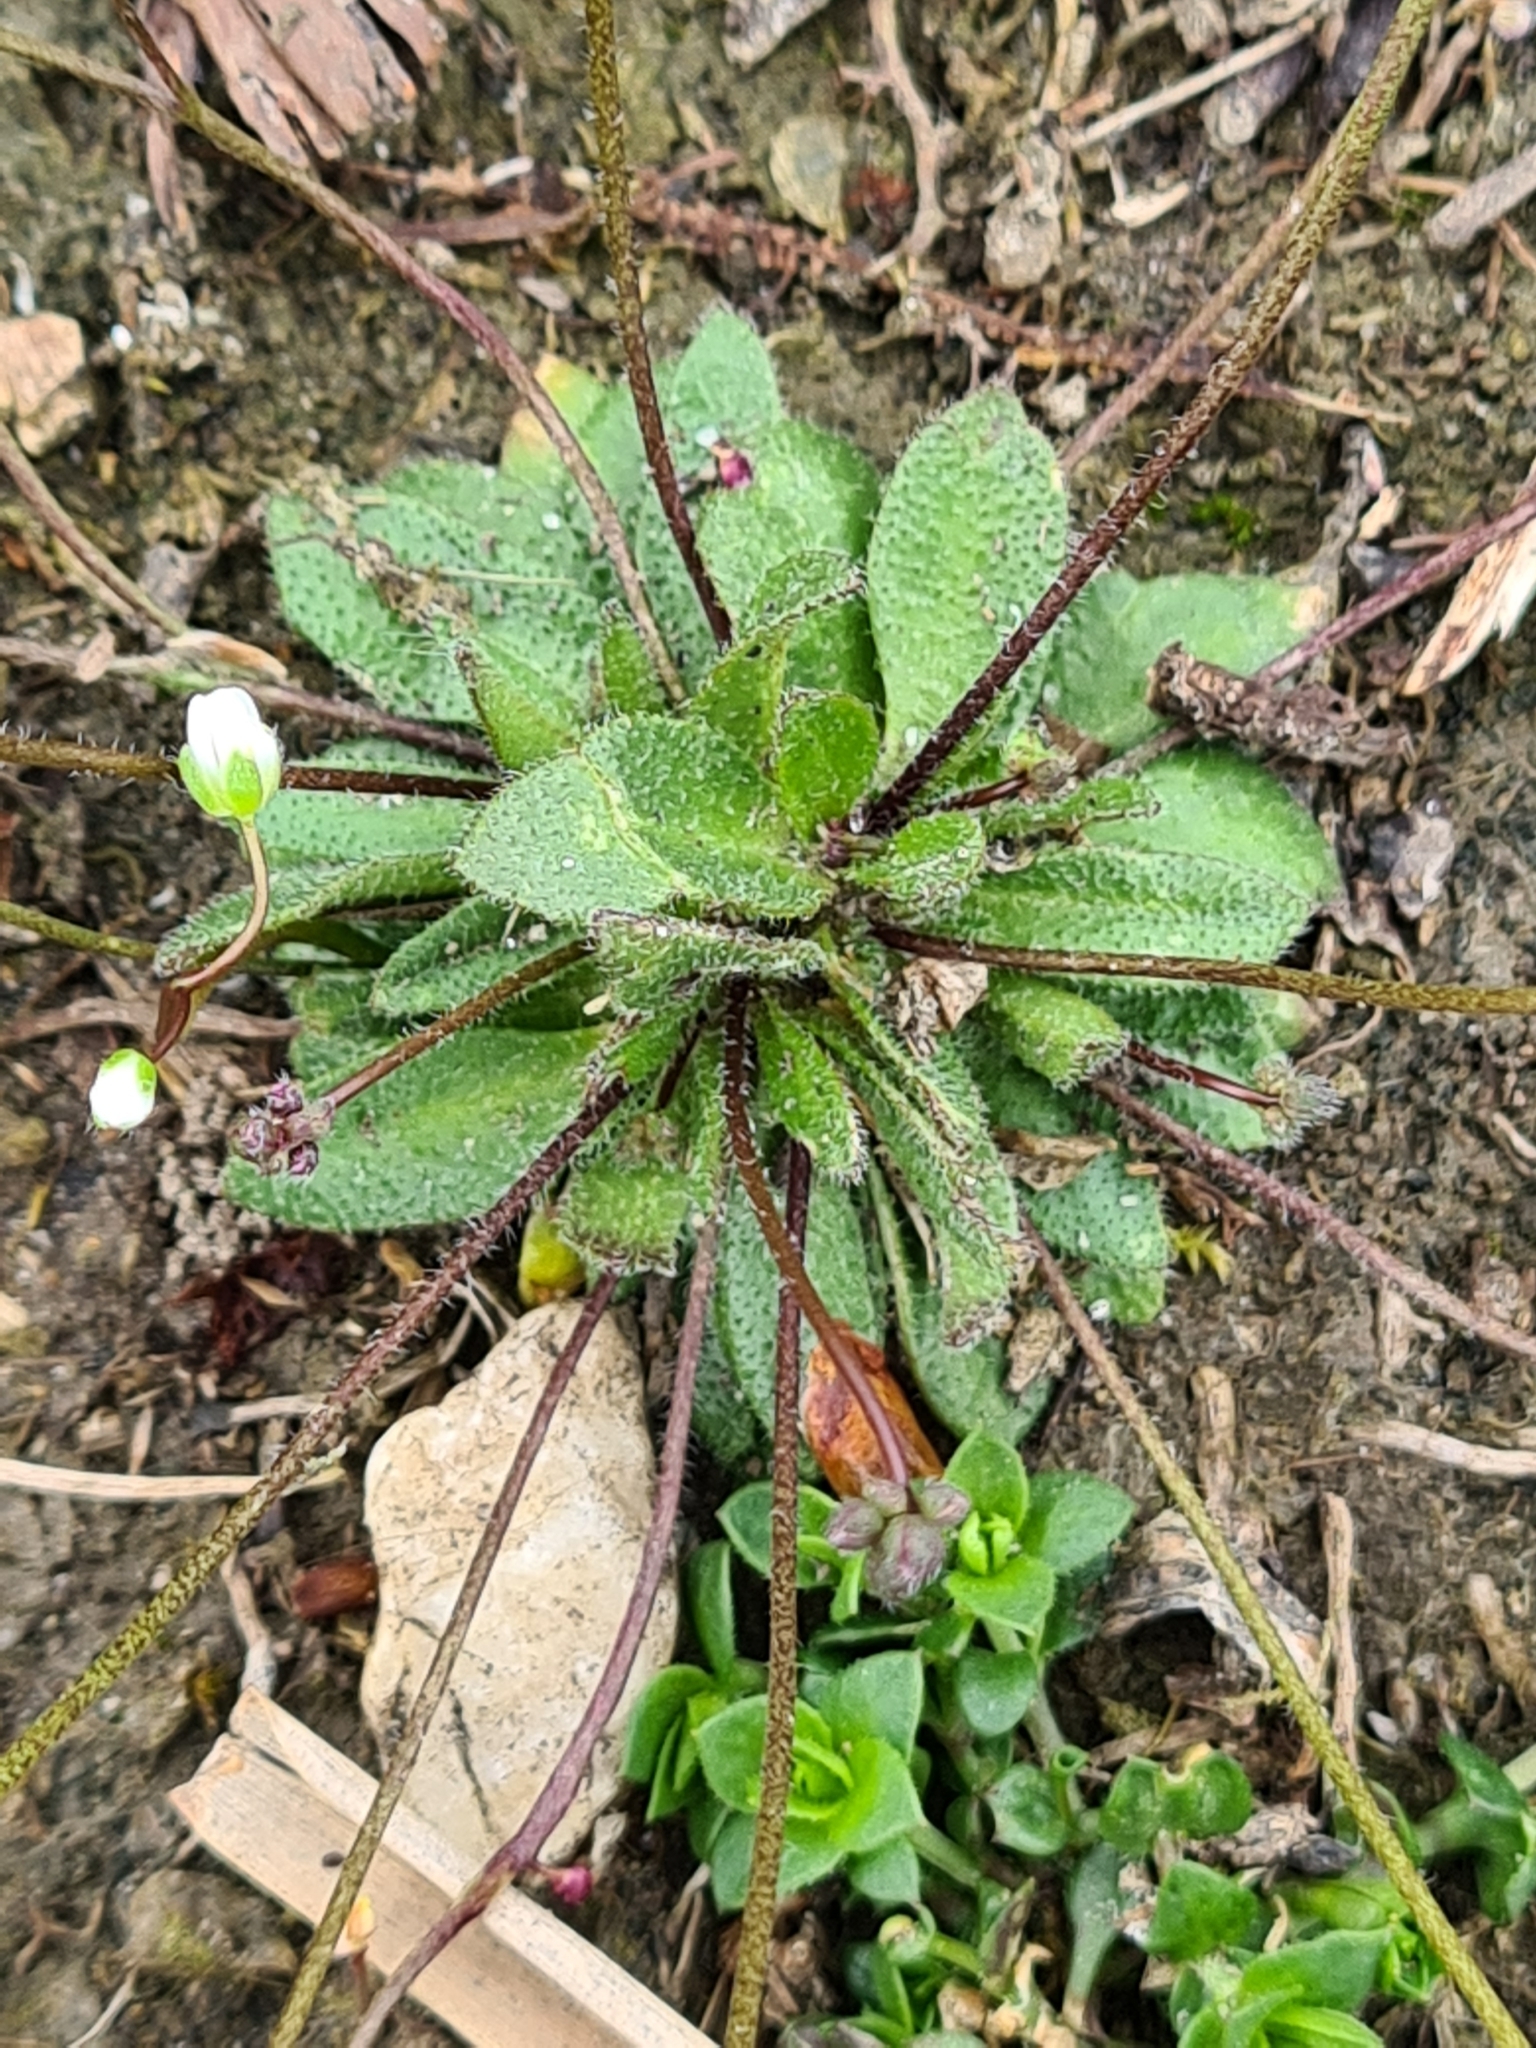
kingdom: Plantae
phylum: Tracheophyta
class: Magnoliopsida
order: Brassicales
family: Brassicaceae
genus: Draba
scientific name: Draba verna
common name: Spring draba
